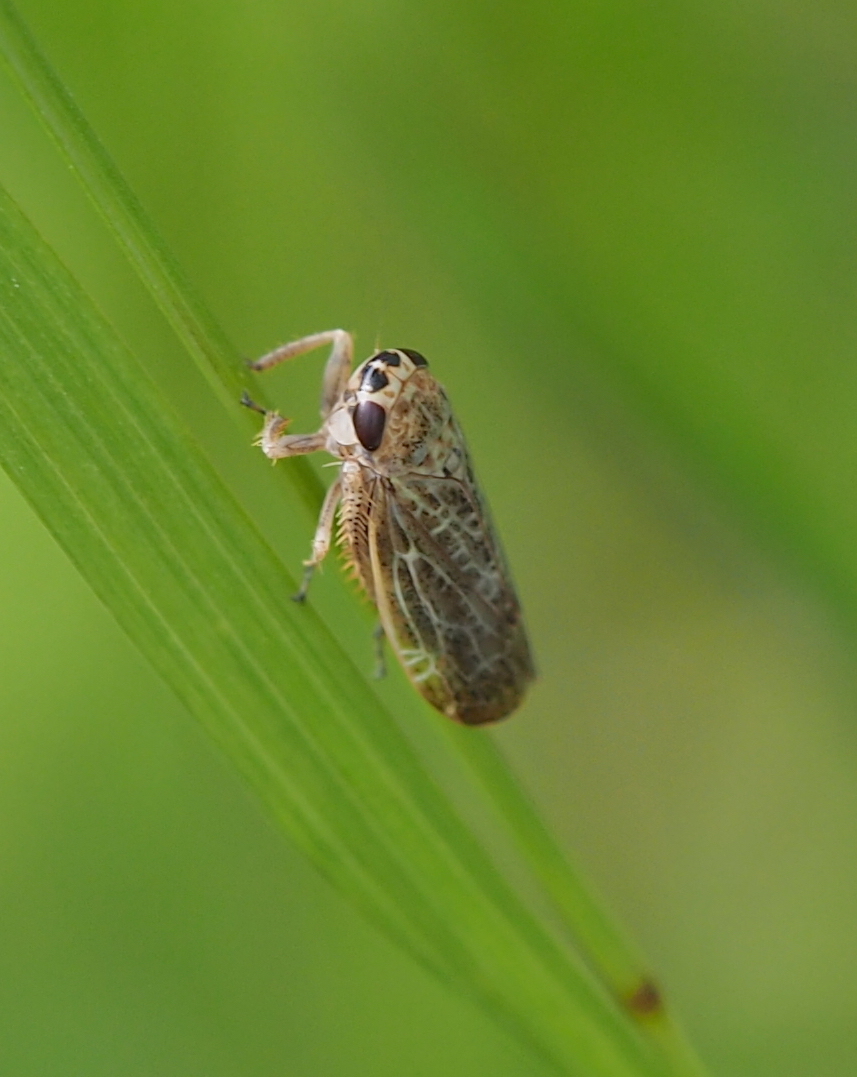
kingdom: Animalia
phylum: Arthropoda
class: Insecta
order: Hemiptera
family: Cicadellidae
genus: Allygidius
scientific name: Allygidius abbreviatus
